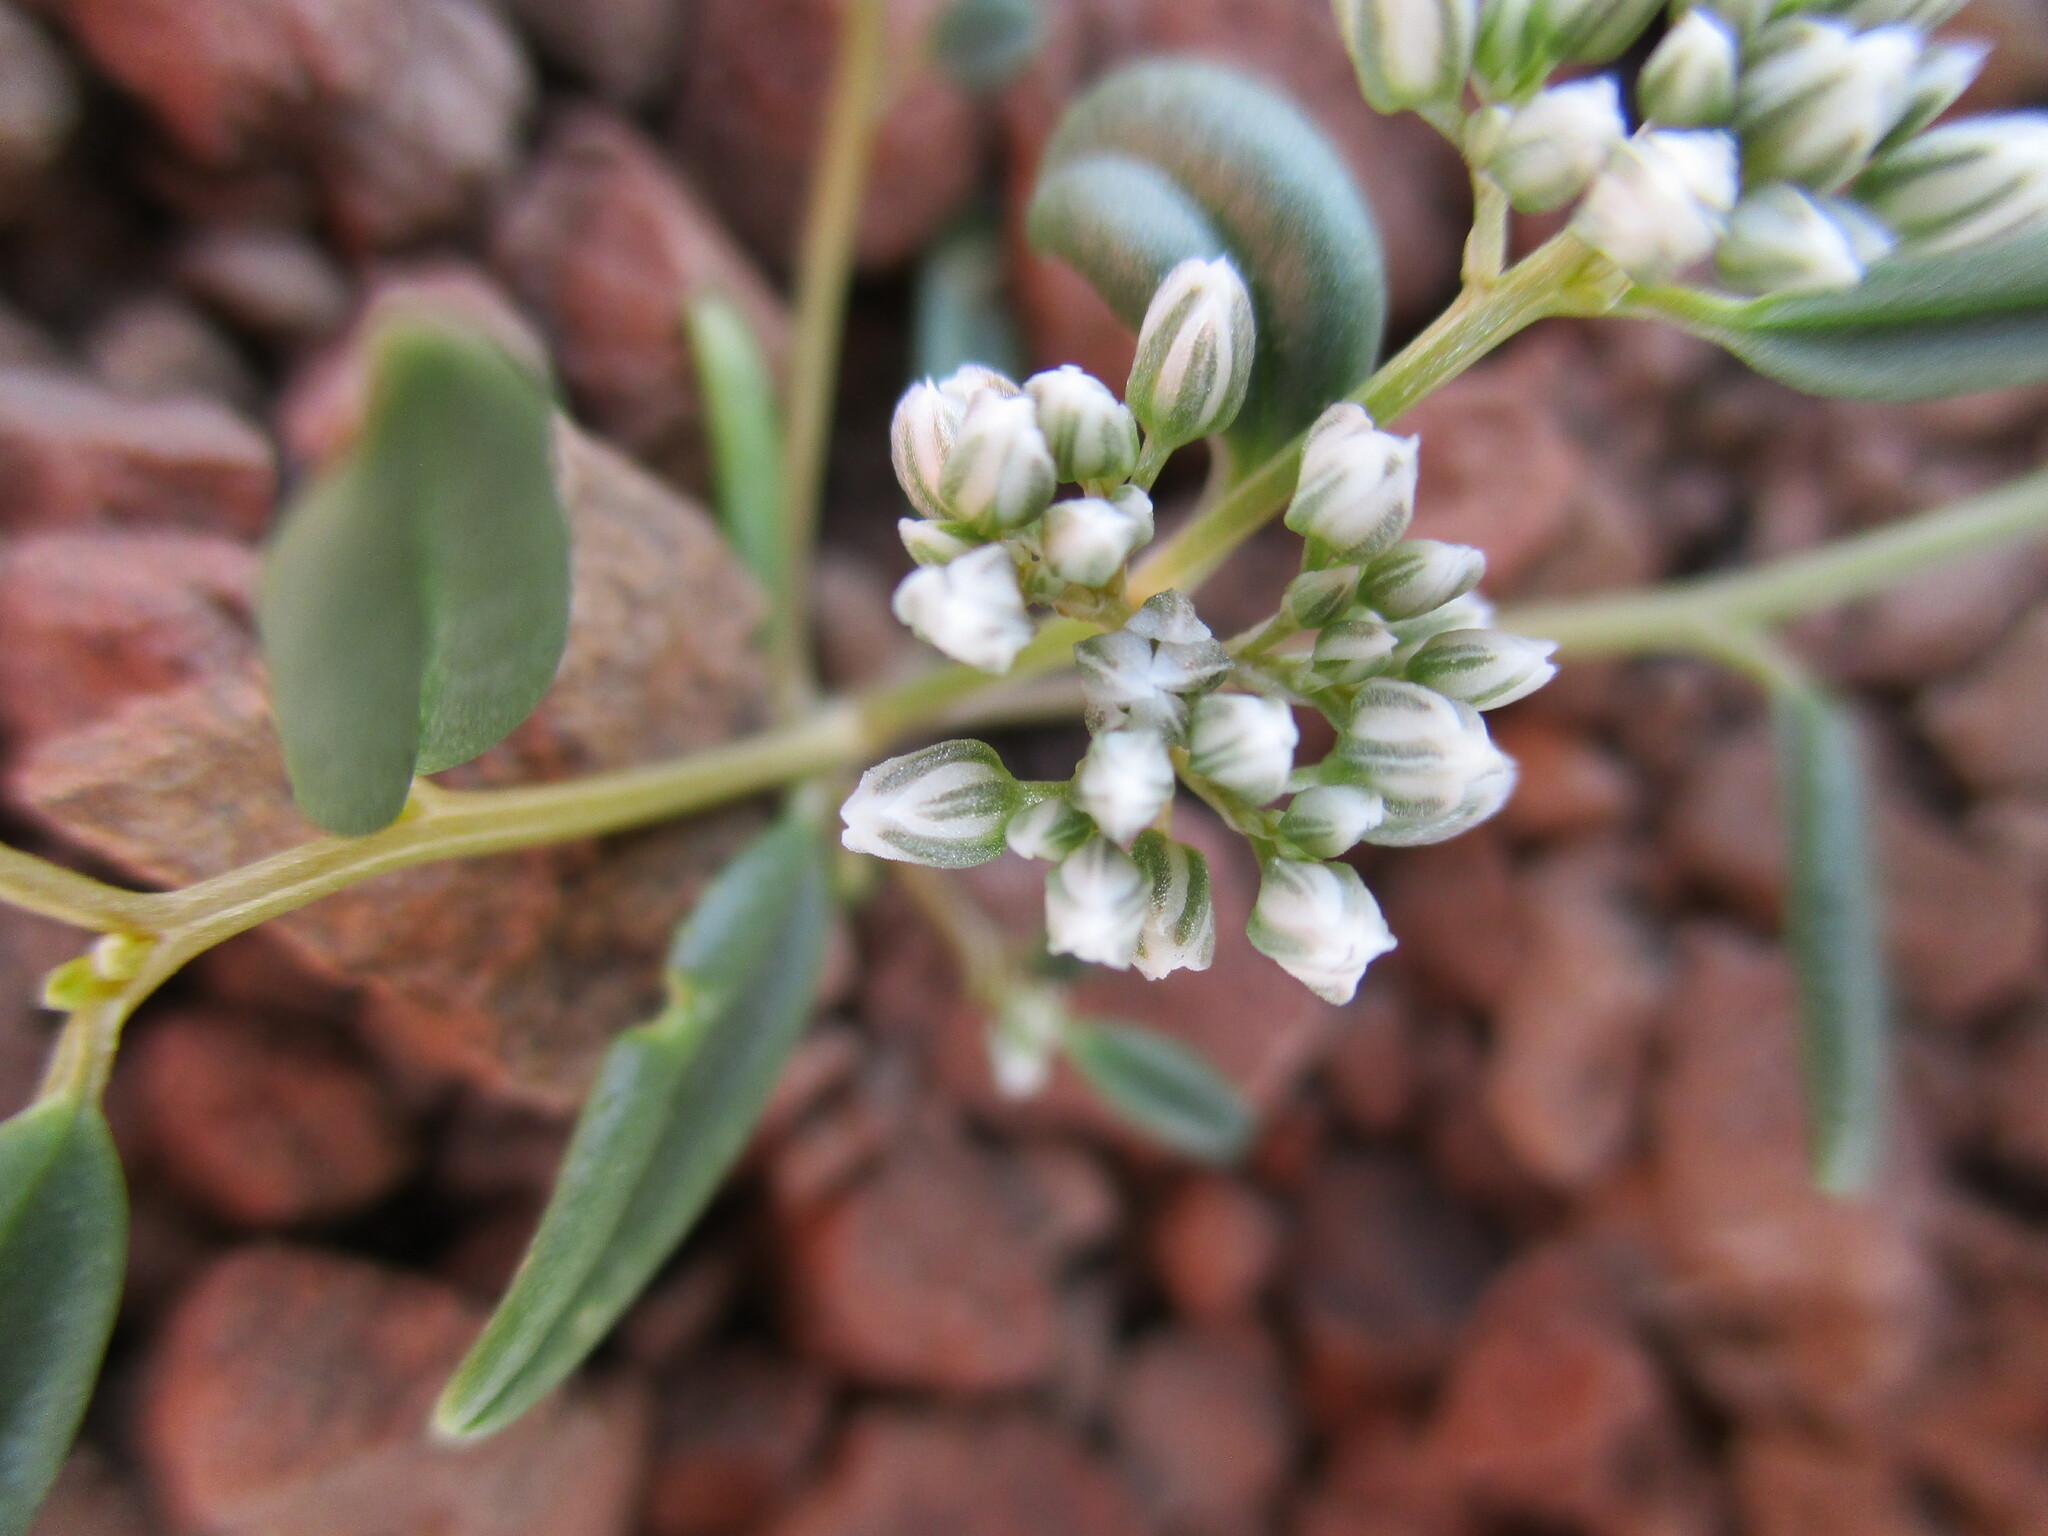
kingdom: Plantae
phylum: Tracheophyta
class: Magnoliopsida
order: Caryophyllales
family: Limeaceae
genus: Limeum
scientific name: Limeum argute-carinatum
